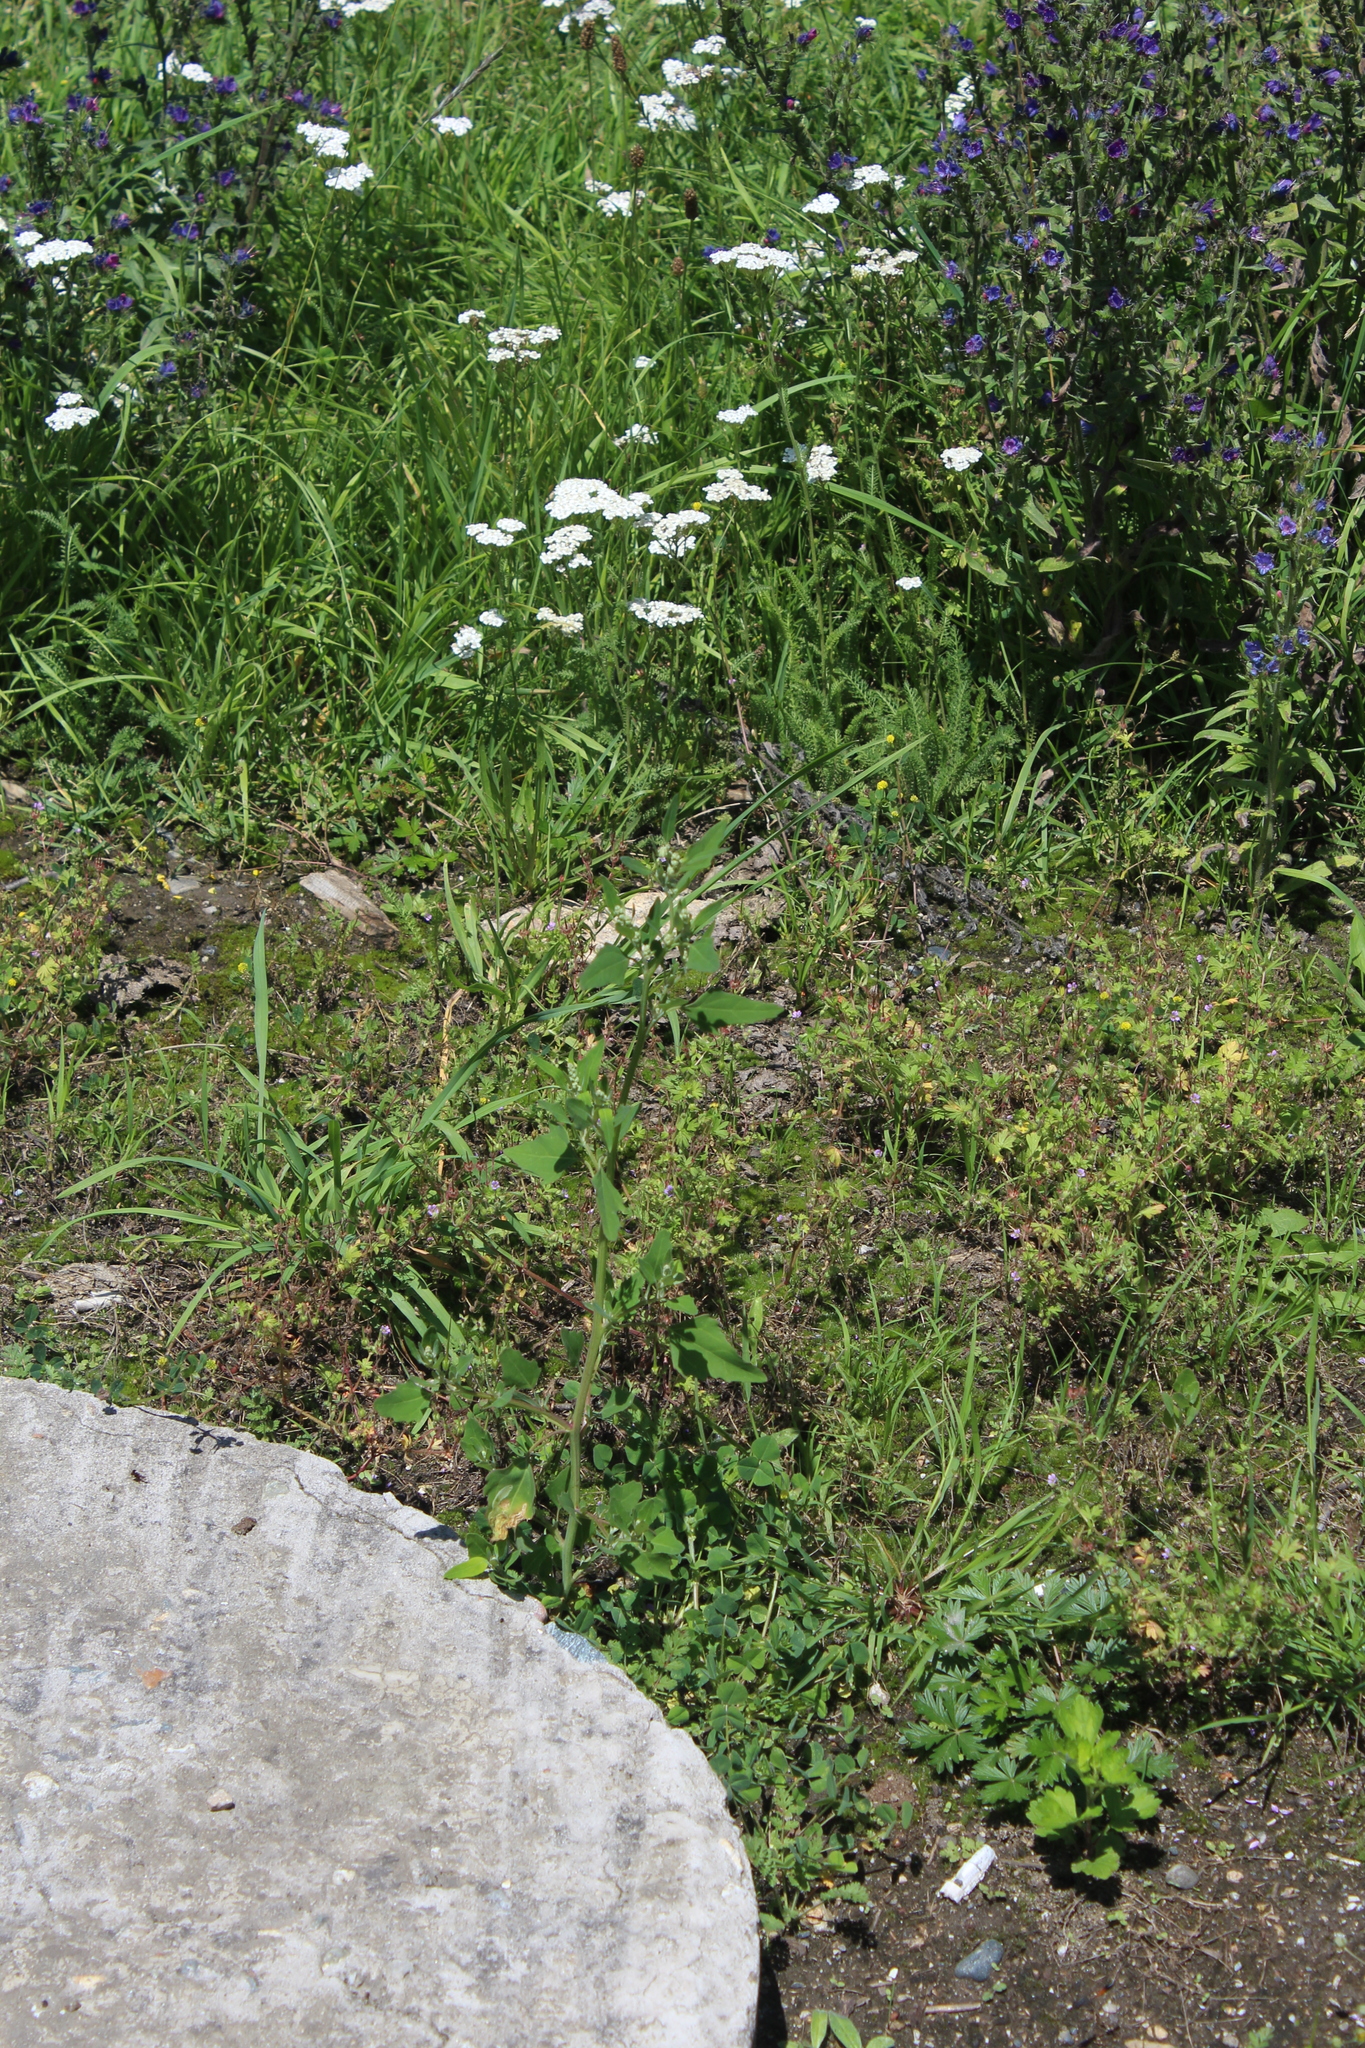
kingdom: Plantae
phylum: Tracheophyta
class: Magnoliopsida
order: Caryophyllales
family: Amaranthaceae
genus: Chenopodium
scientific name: Chenopodium album
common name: Fat-hen
